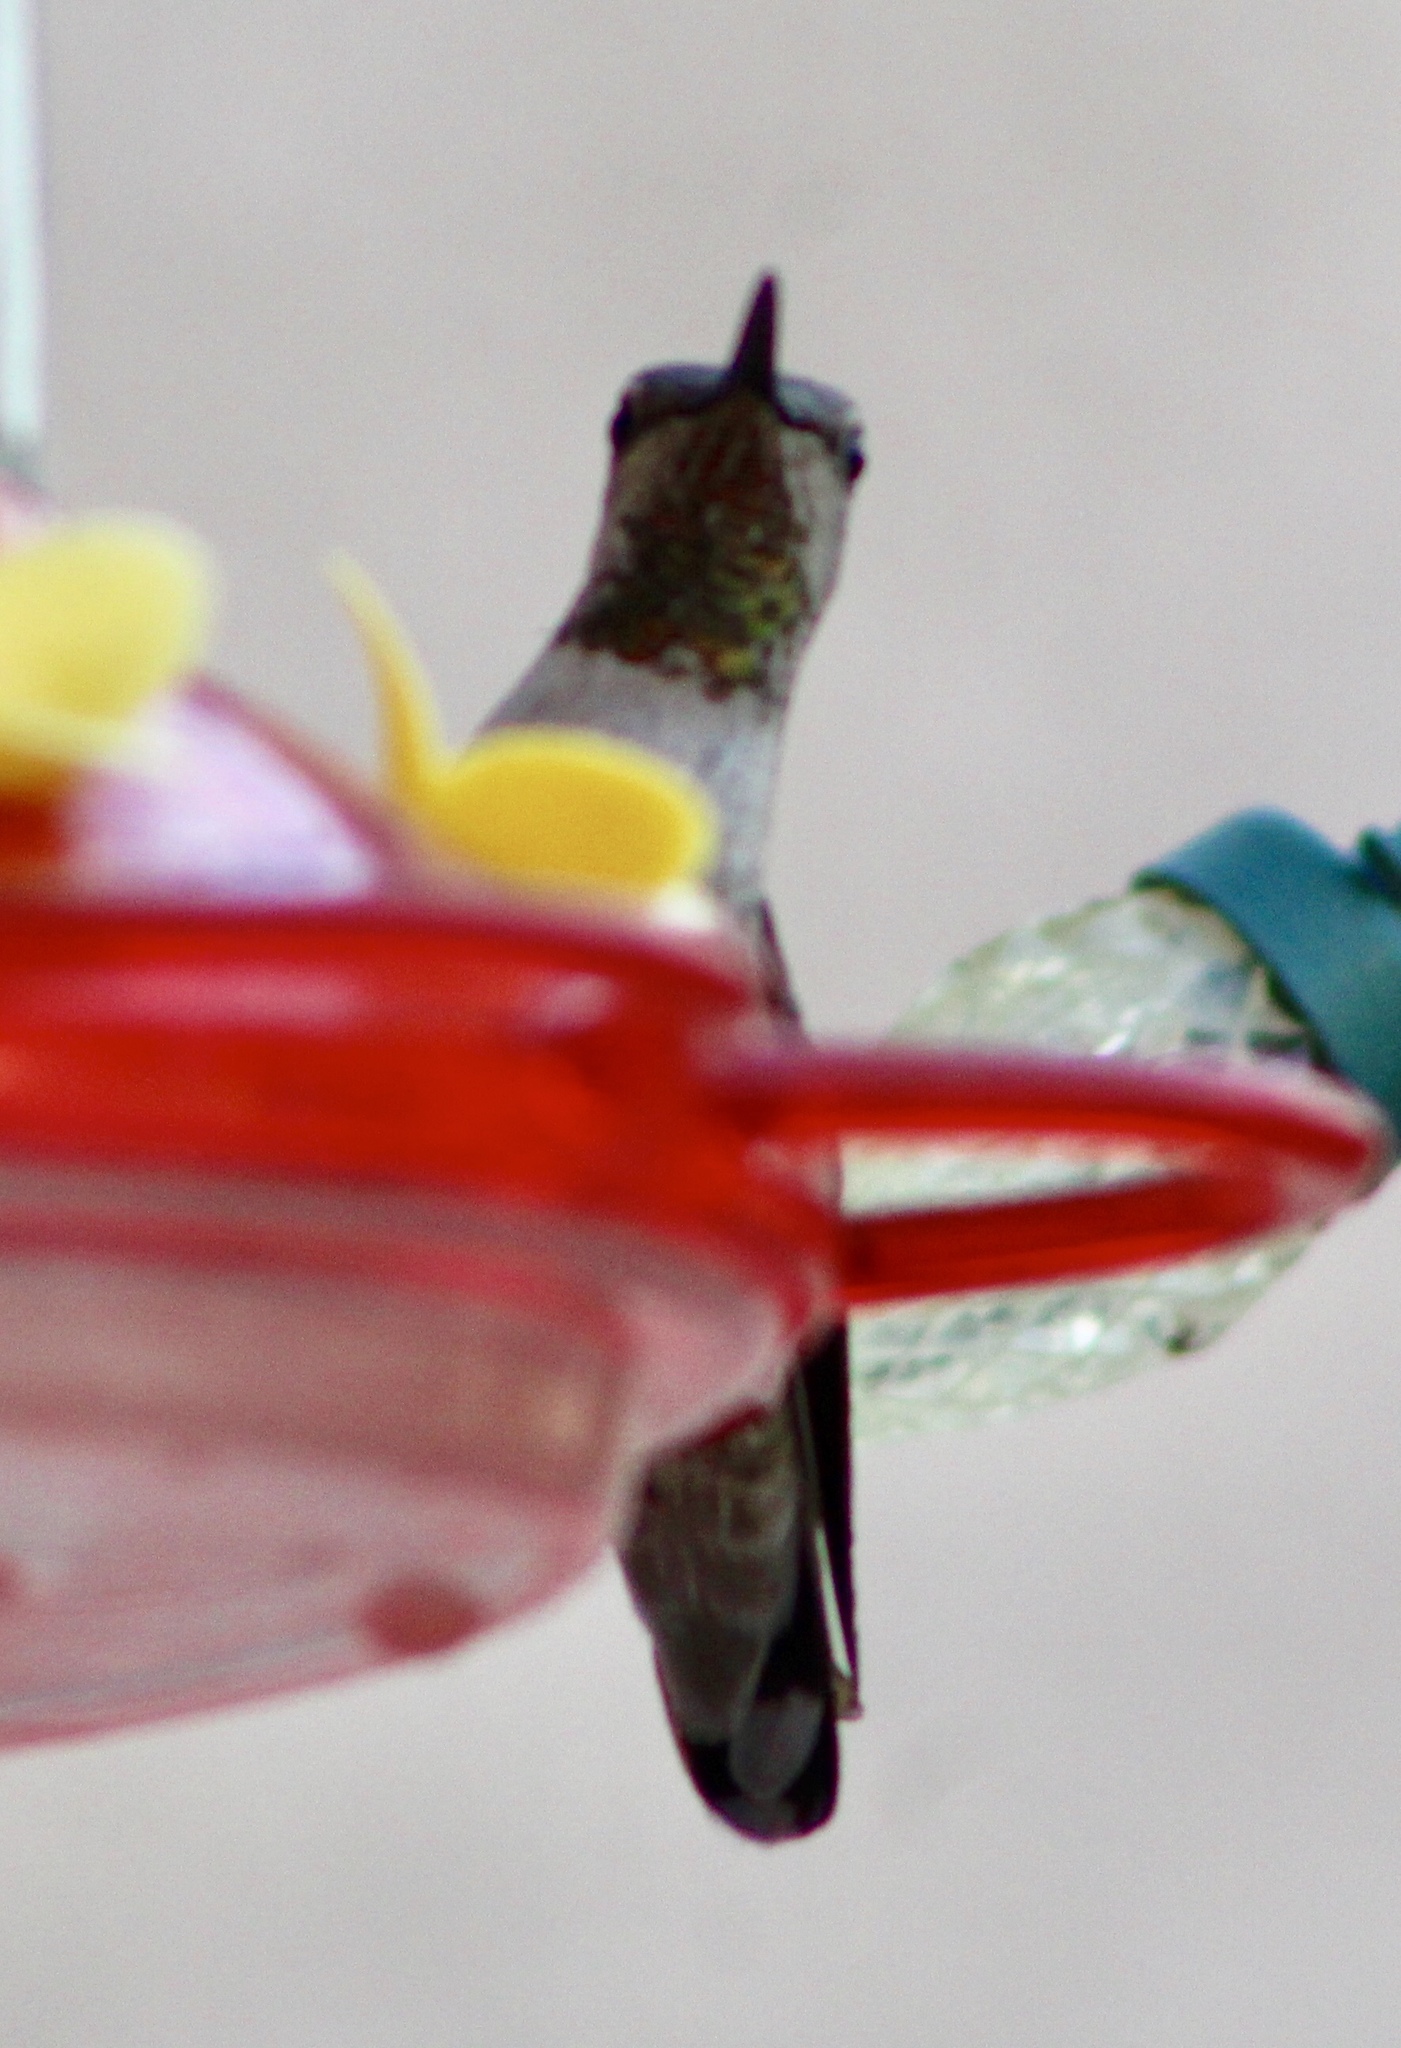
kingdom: Animalia
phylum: Chordata
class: Aves
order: Apodiformes
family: Trochilidae
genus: Calypte
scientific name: Calypte anna
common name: Anna's hummingbird
